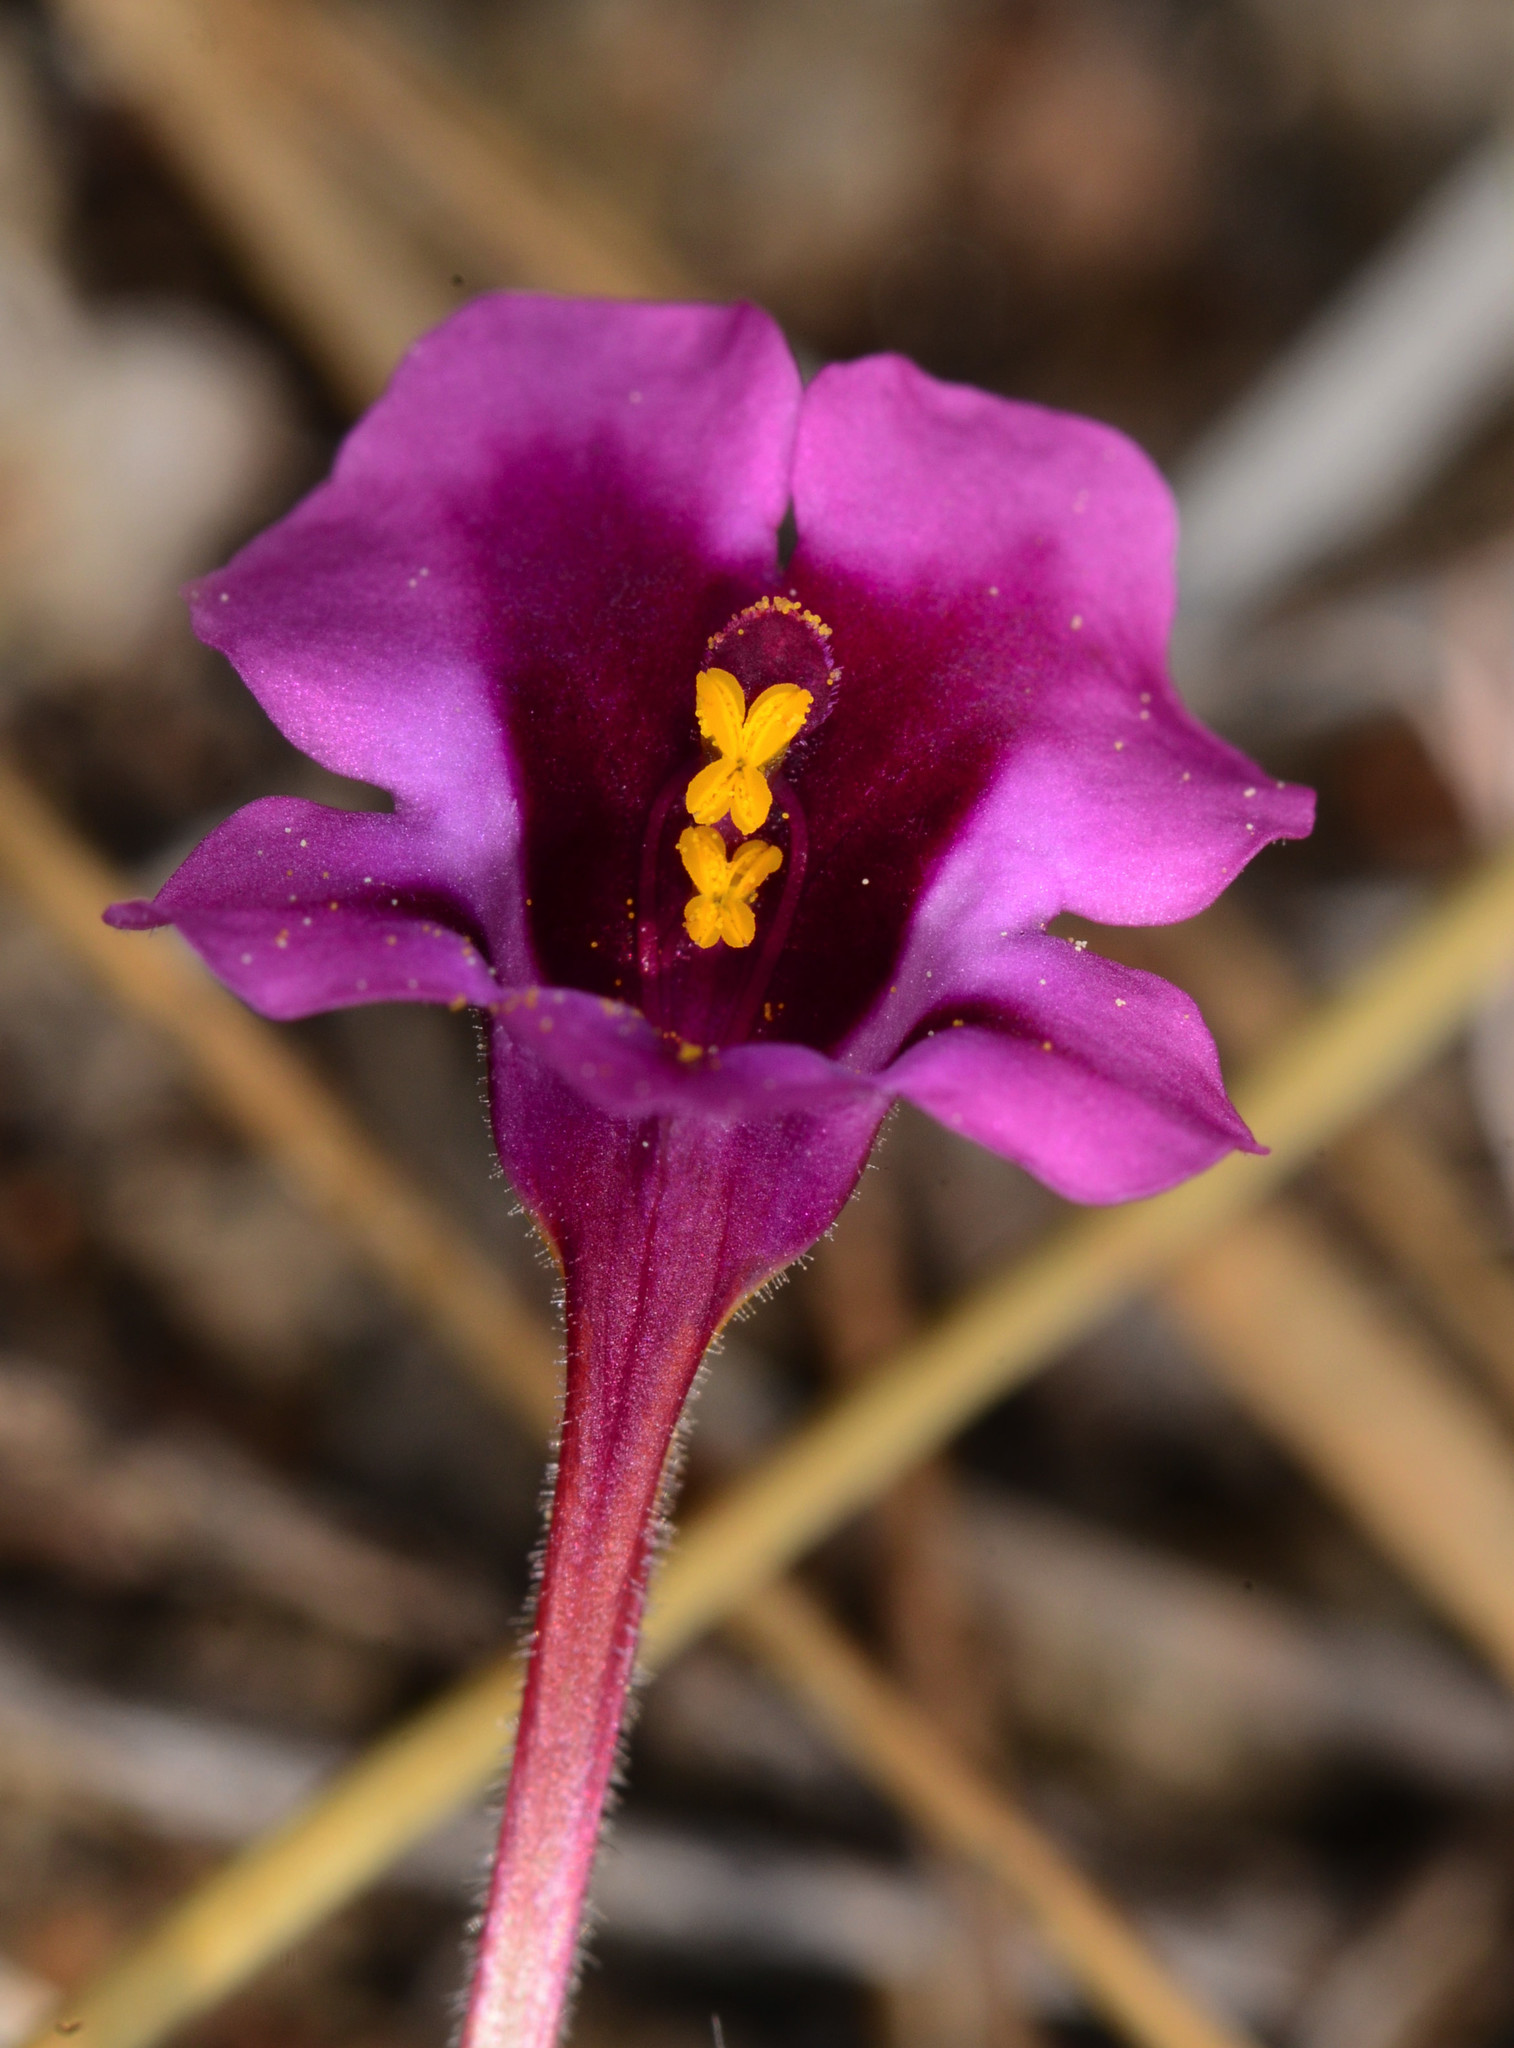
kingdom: Plantae
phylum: Tracheophyta
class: Magnoliopsida
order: Lamiales
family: Phrymaceae
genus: Diplacus
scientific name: Diplacus kelloggii
